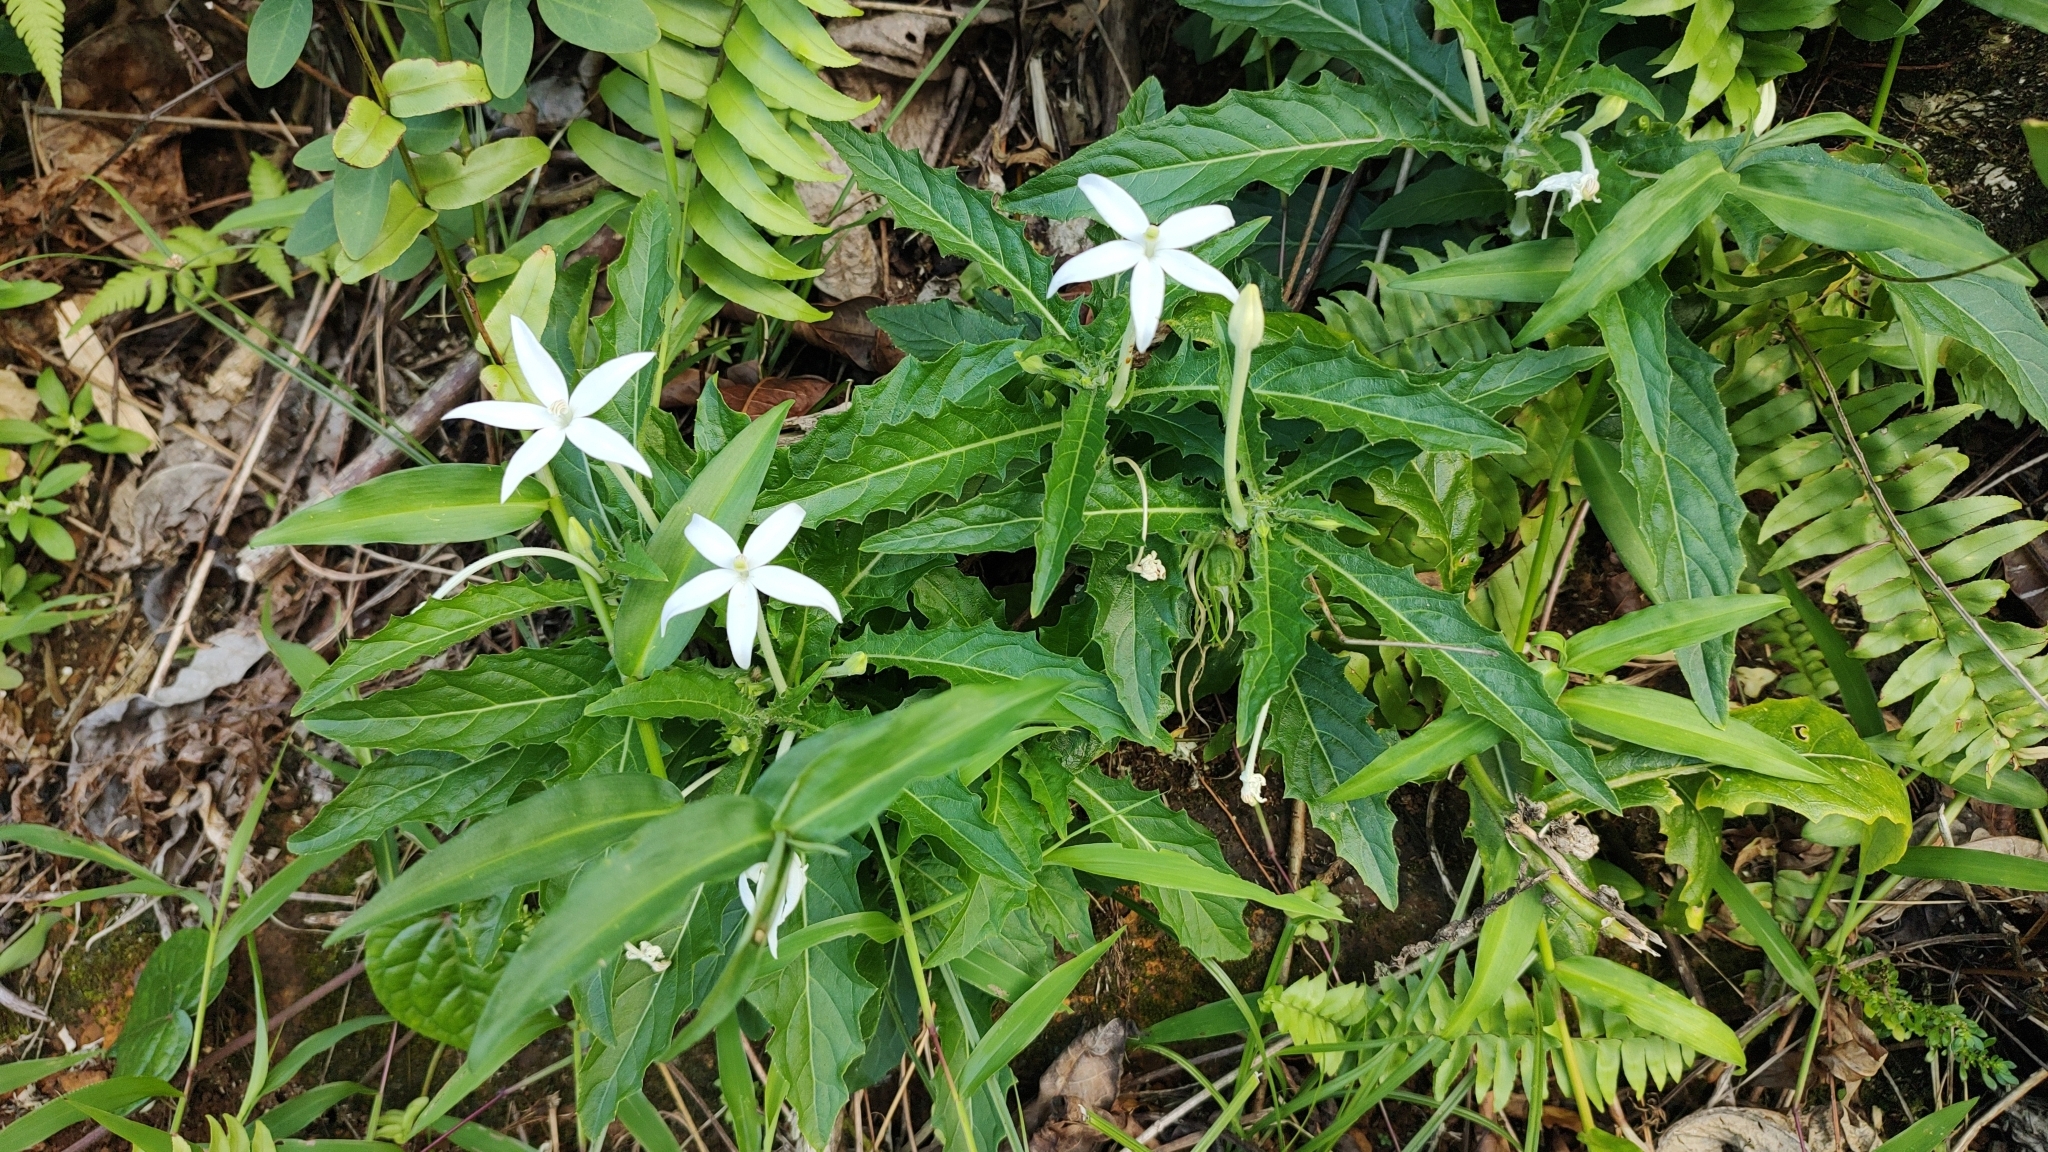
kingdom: Plantae
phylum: Tracheophyta
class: Magnoliopsida
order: Asterales
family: Campanulaceae
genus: Hippobroma
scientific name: Hippobroma longiflora
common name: Madamfate
